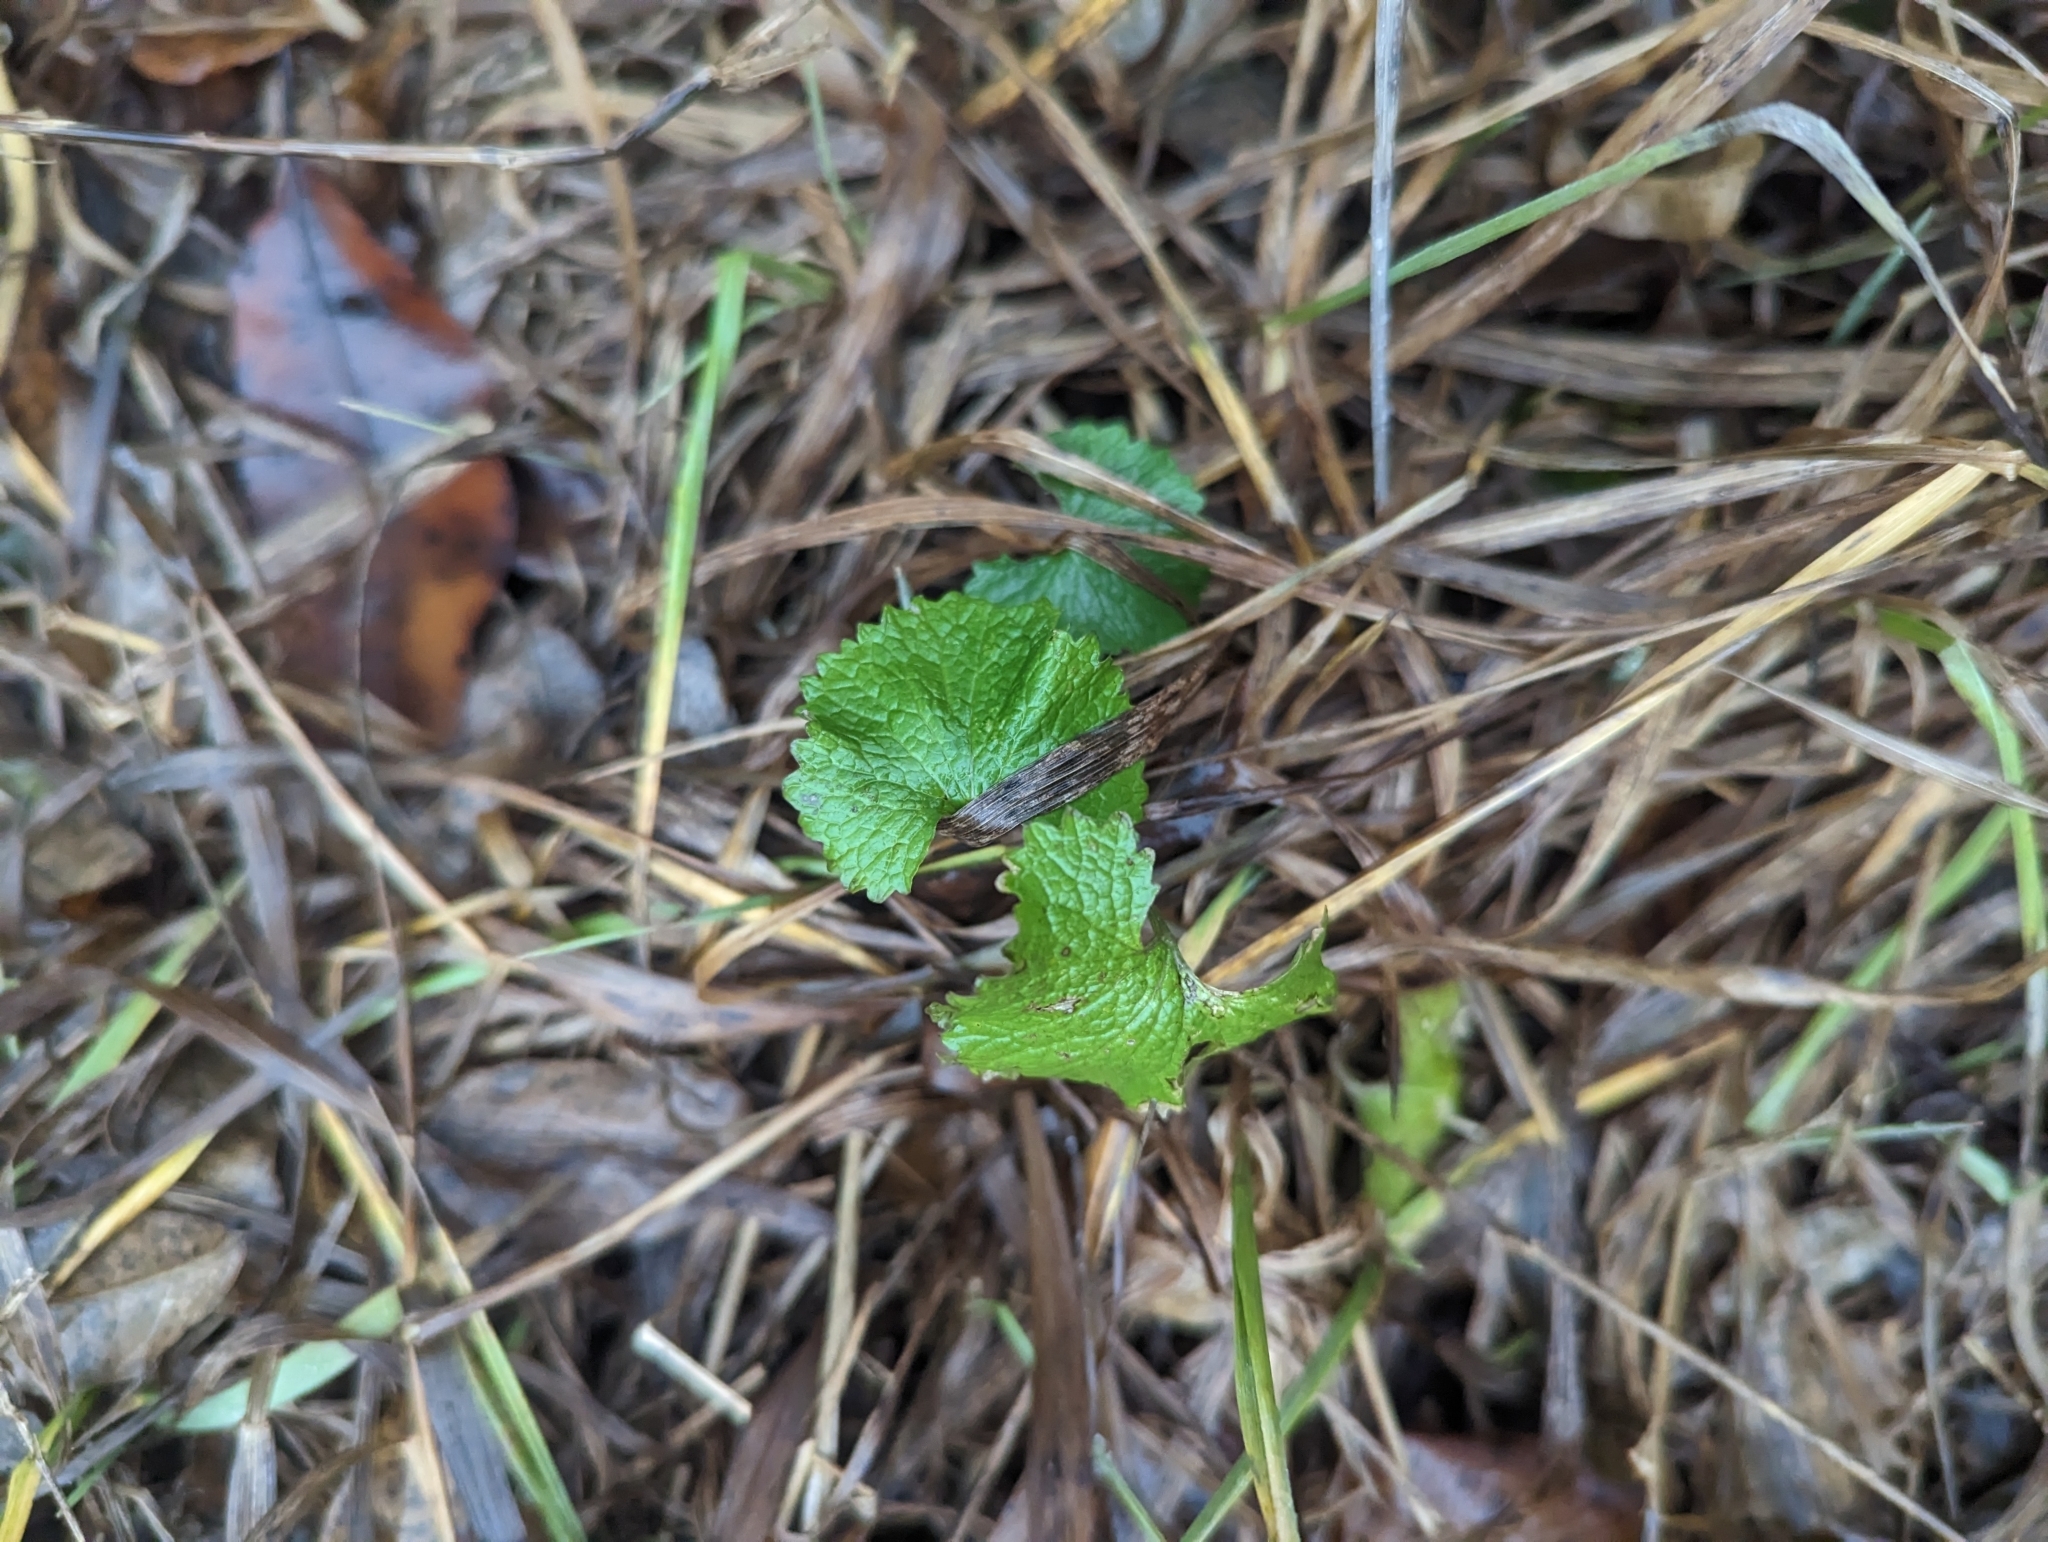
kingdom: Plantae
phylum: Tracheophyta
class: Magnoliopsida
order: Brassicales
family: Brassicaceae
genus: Alliaria
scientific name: Alliaria petiolata
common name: Garlic mustard
